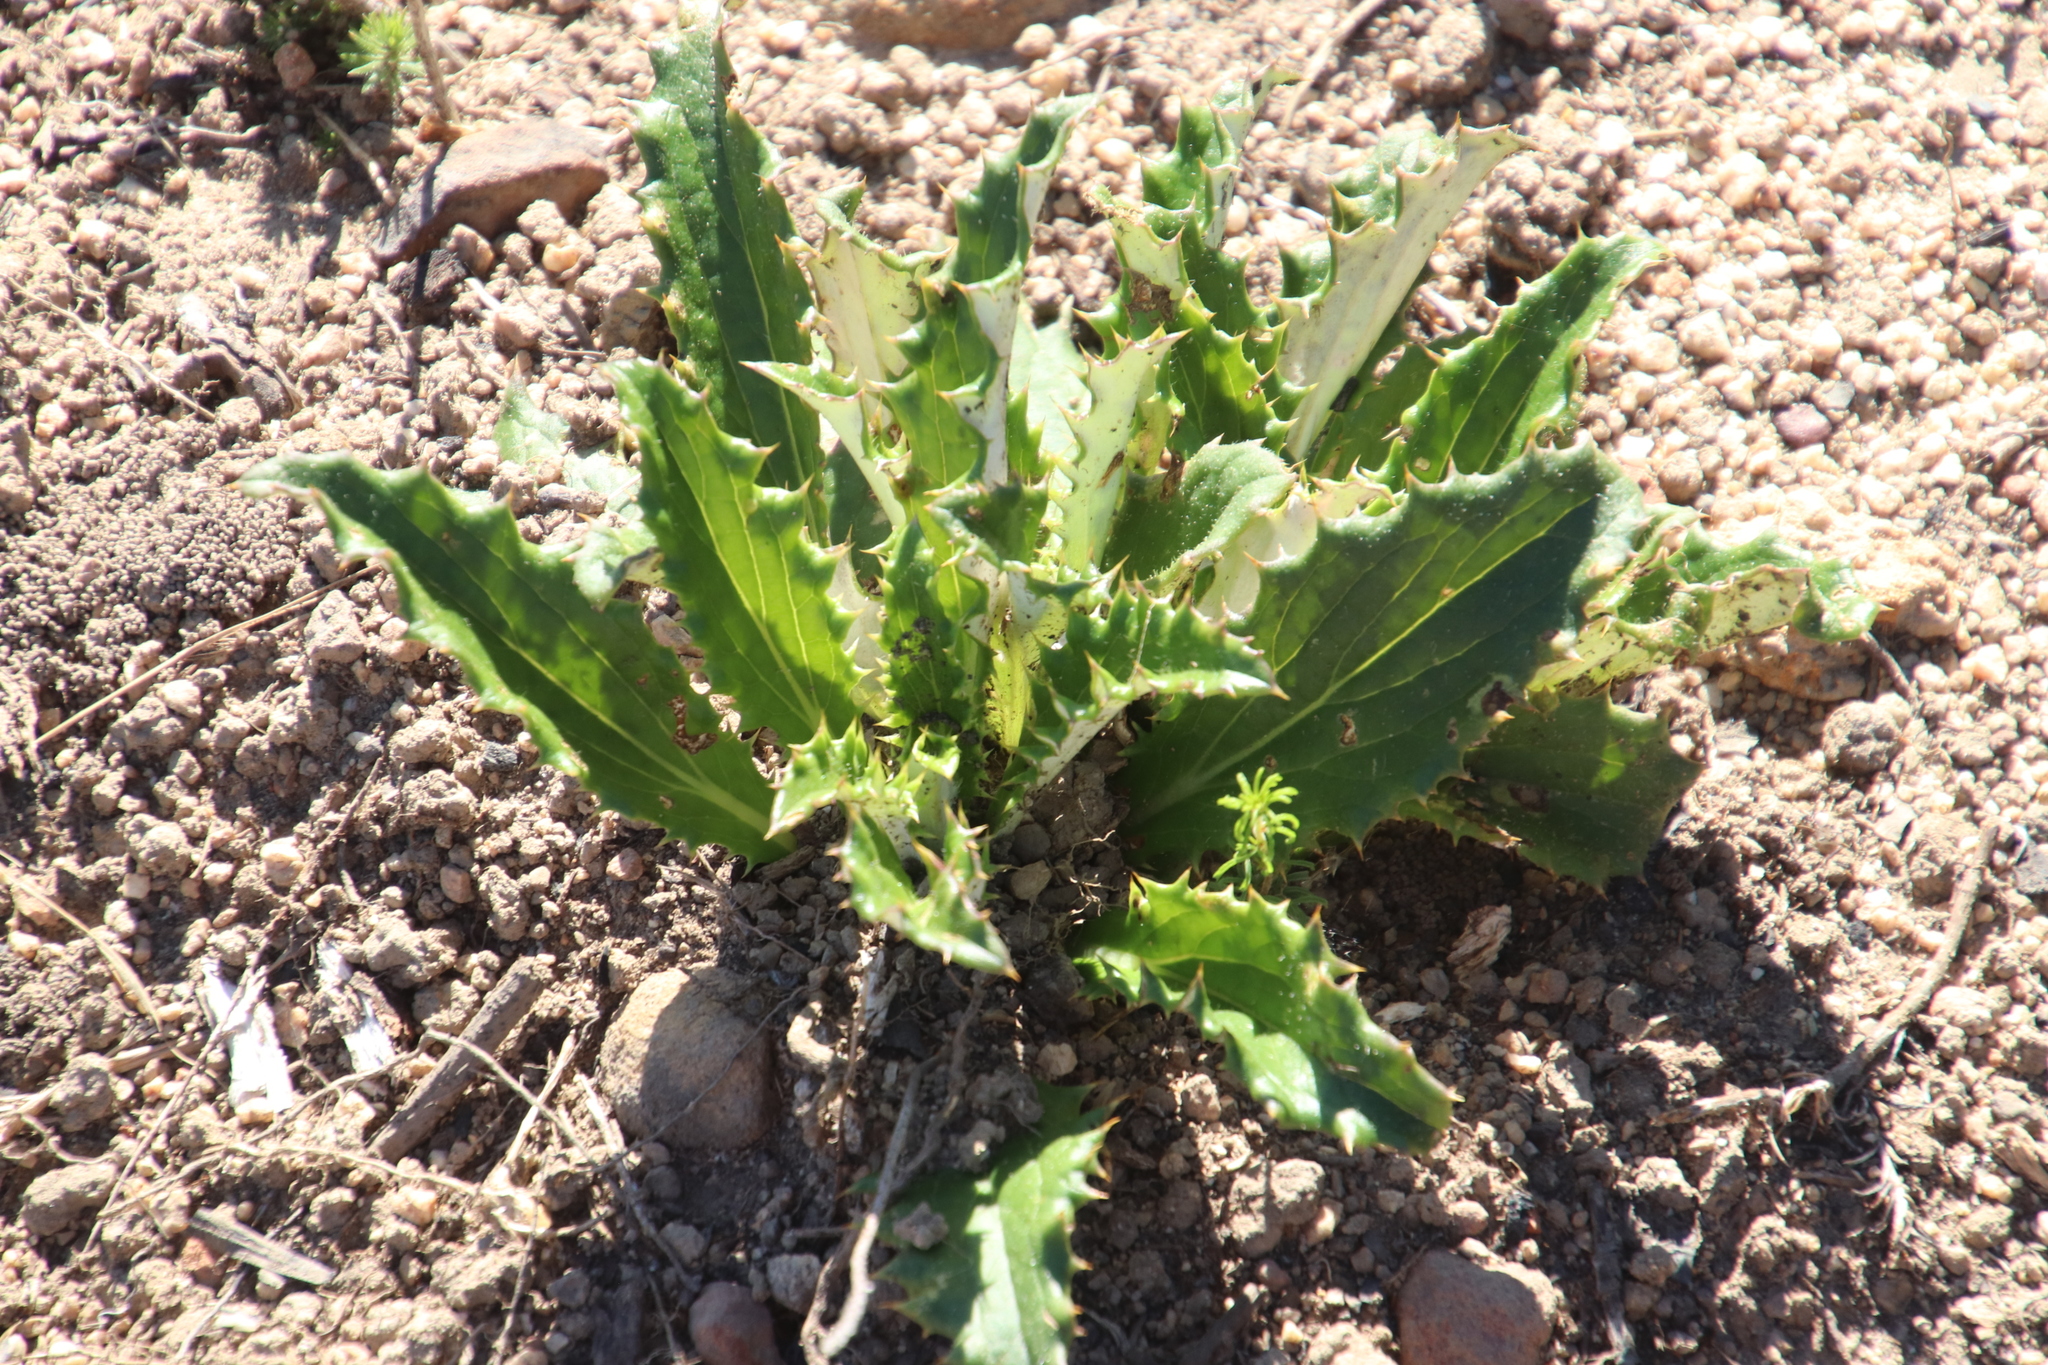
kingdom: Plantae
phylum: Tracheophyta
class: Magnoliopsida
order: Asterales
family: Asteraceae
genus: Berkheya
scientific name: Berkheya armata
